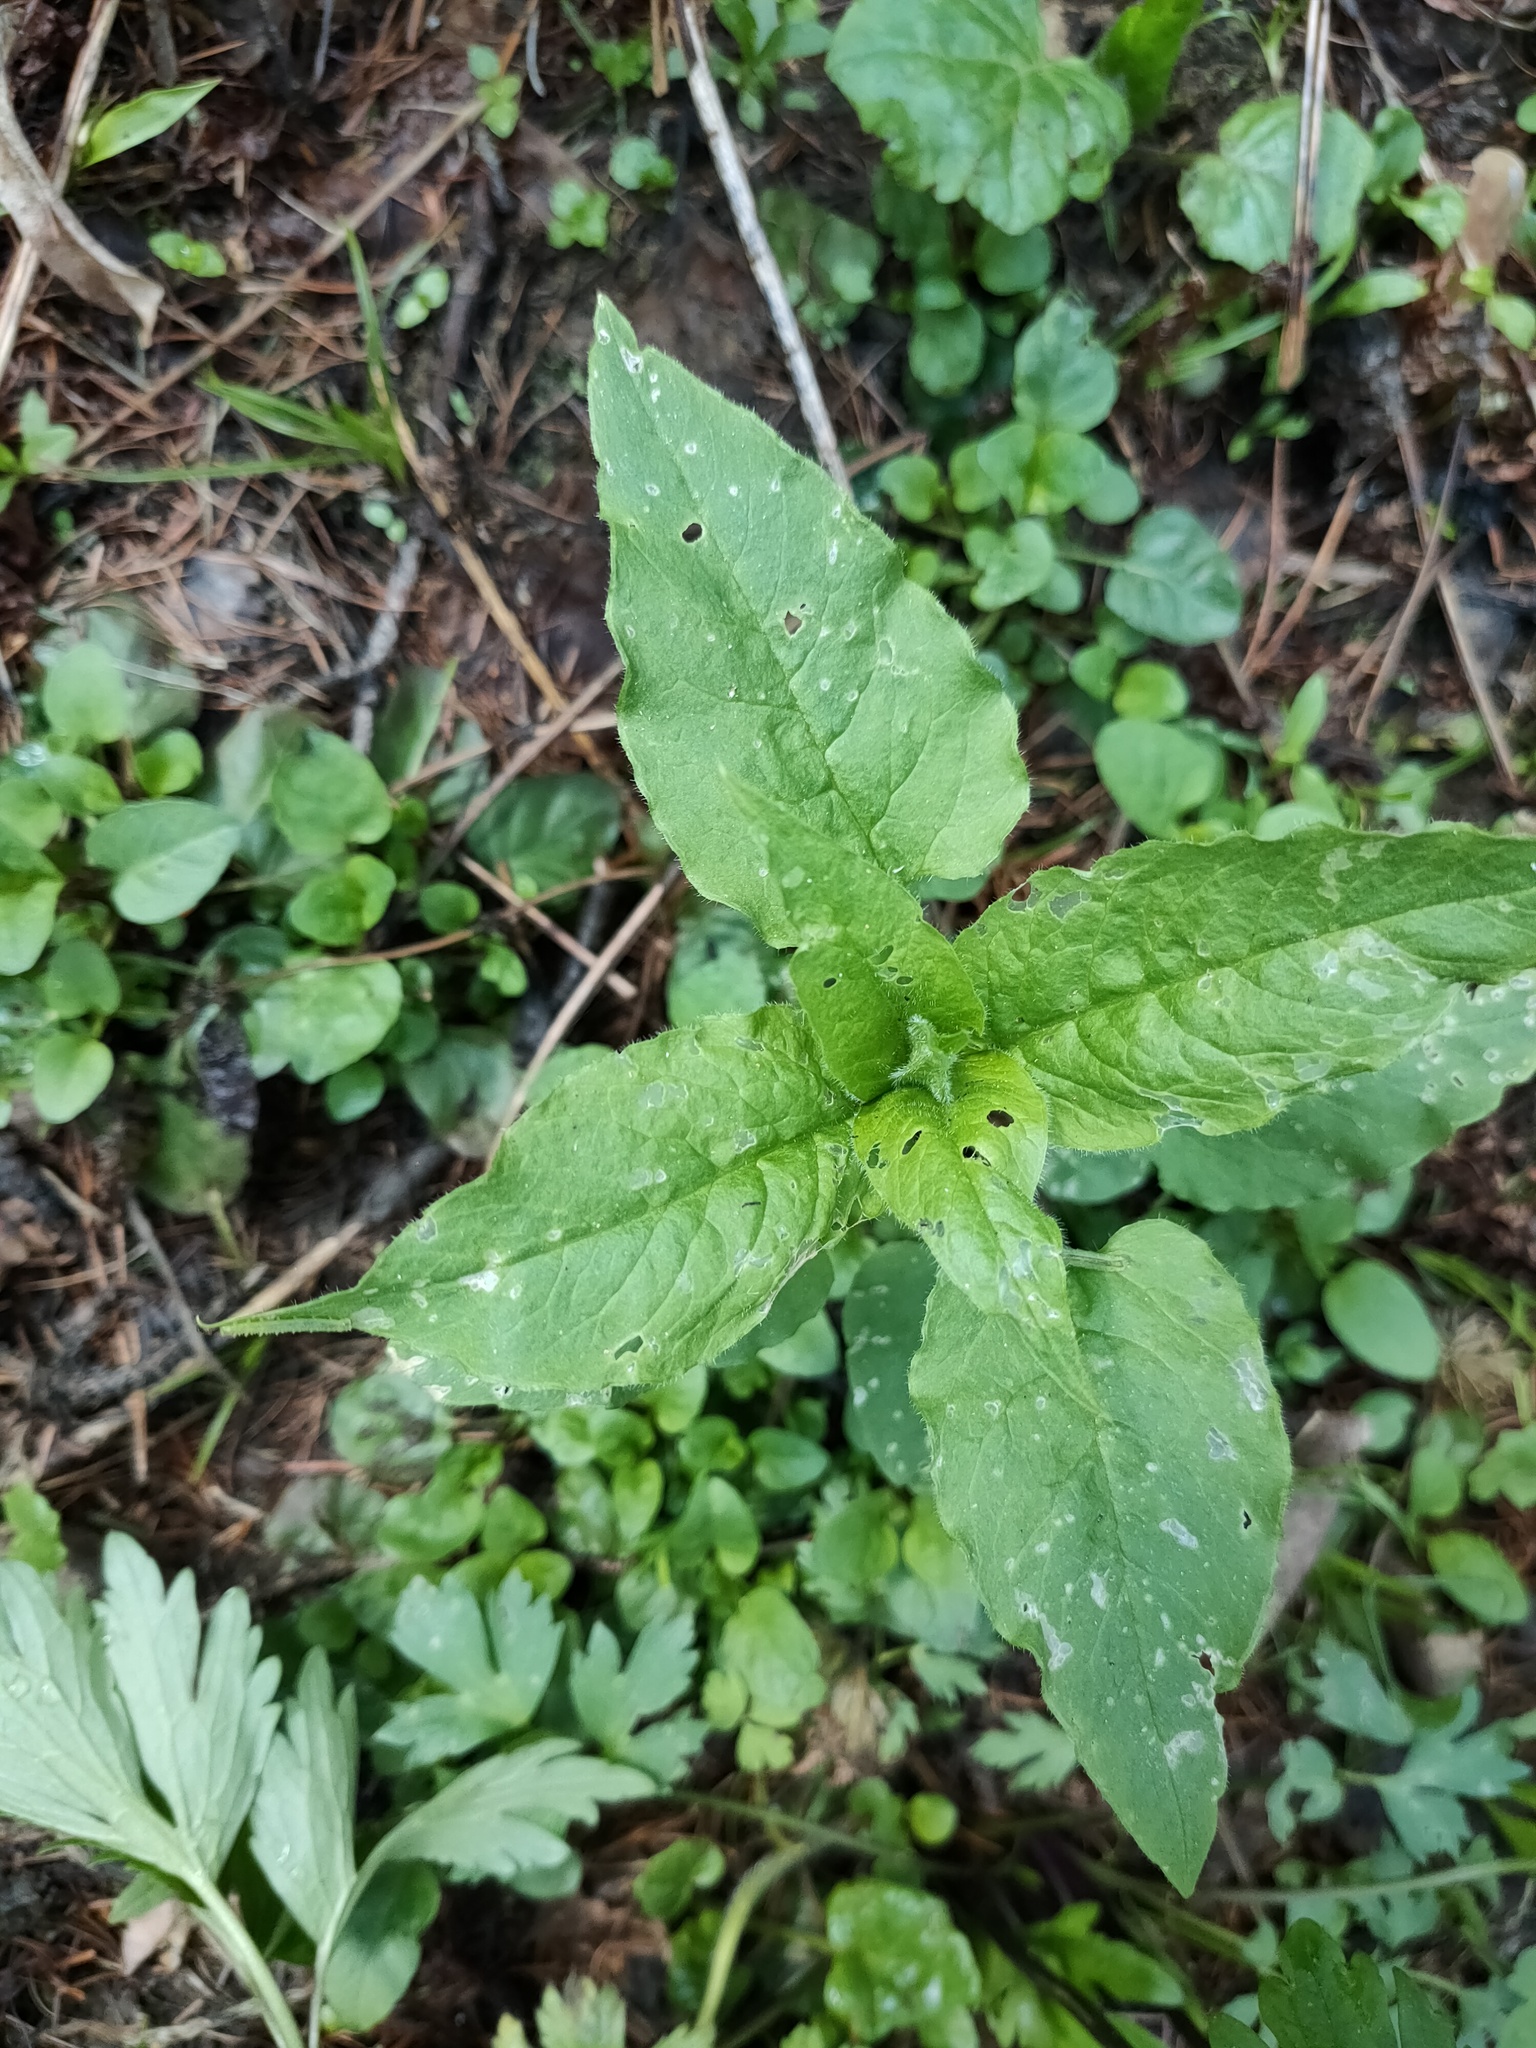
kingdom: Plantae
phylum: Tracheophyta
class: Magnoliopsida
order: Caryophyllales
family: Caryophyllaceae
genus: Stellaria
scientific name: Stellaria nemorum
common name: Wood stitchwort
